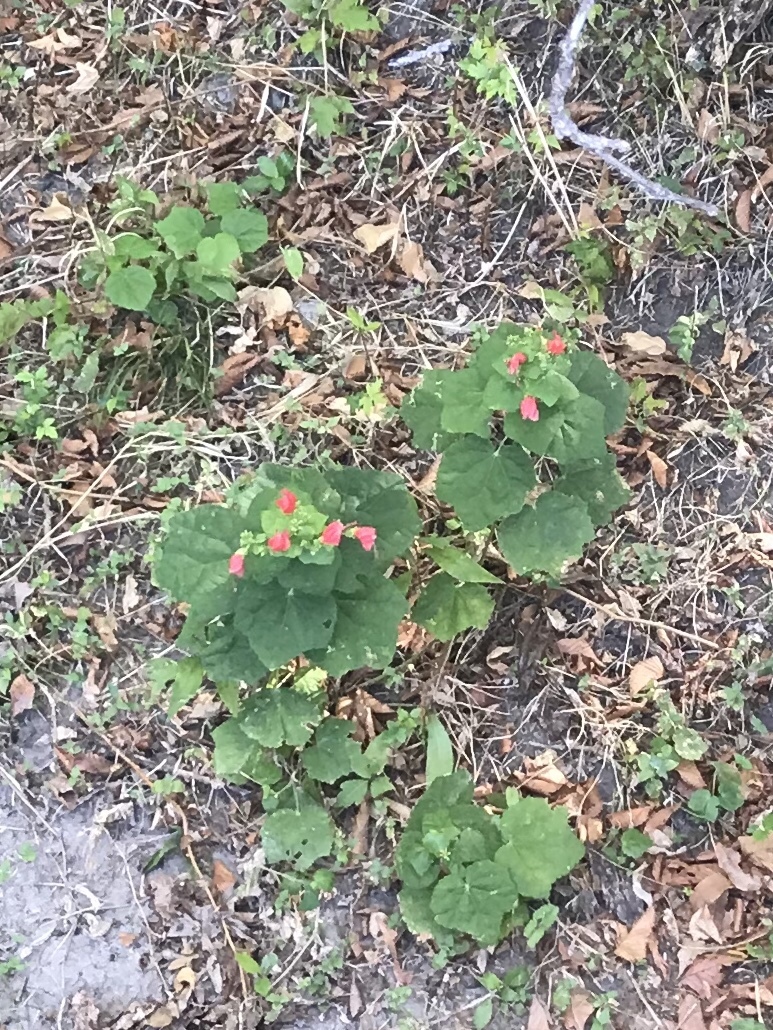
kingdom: Plantae
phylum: Tracheophyta
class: Magnoliopsida
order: Malvales
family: Malvaceae
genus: Malvaviscus
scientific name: Malvaviscus arboreus
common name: Wax mallow
